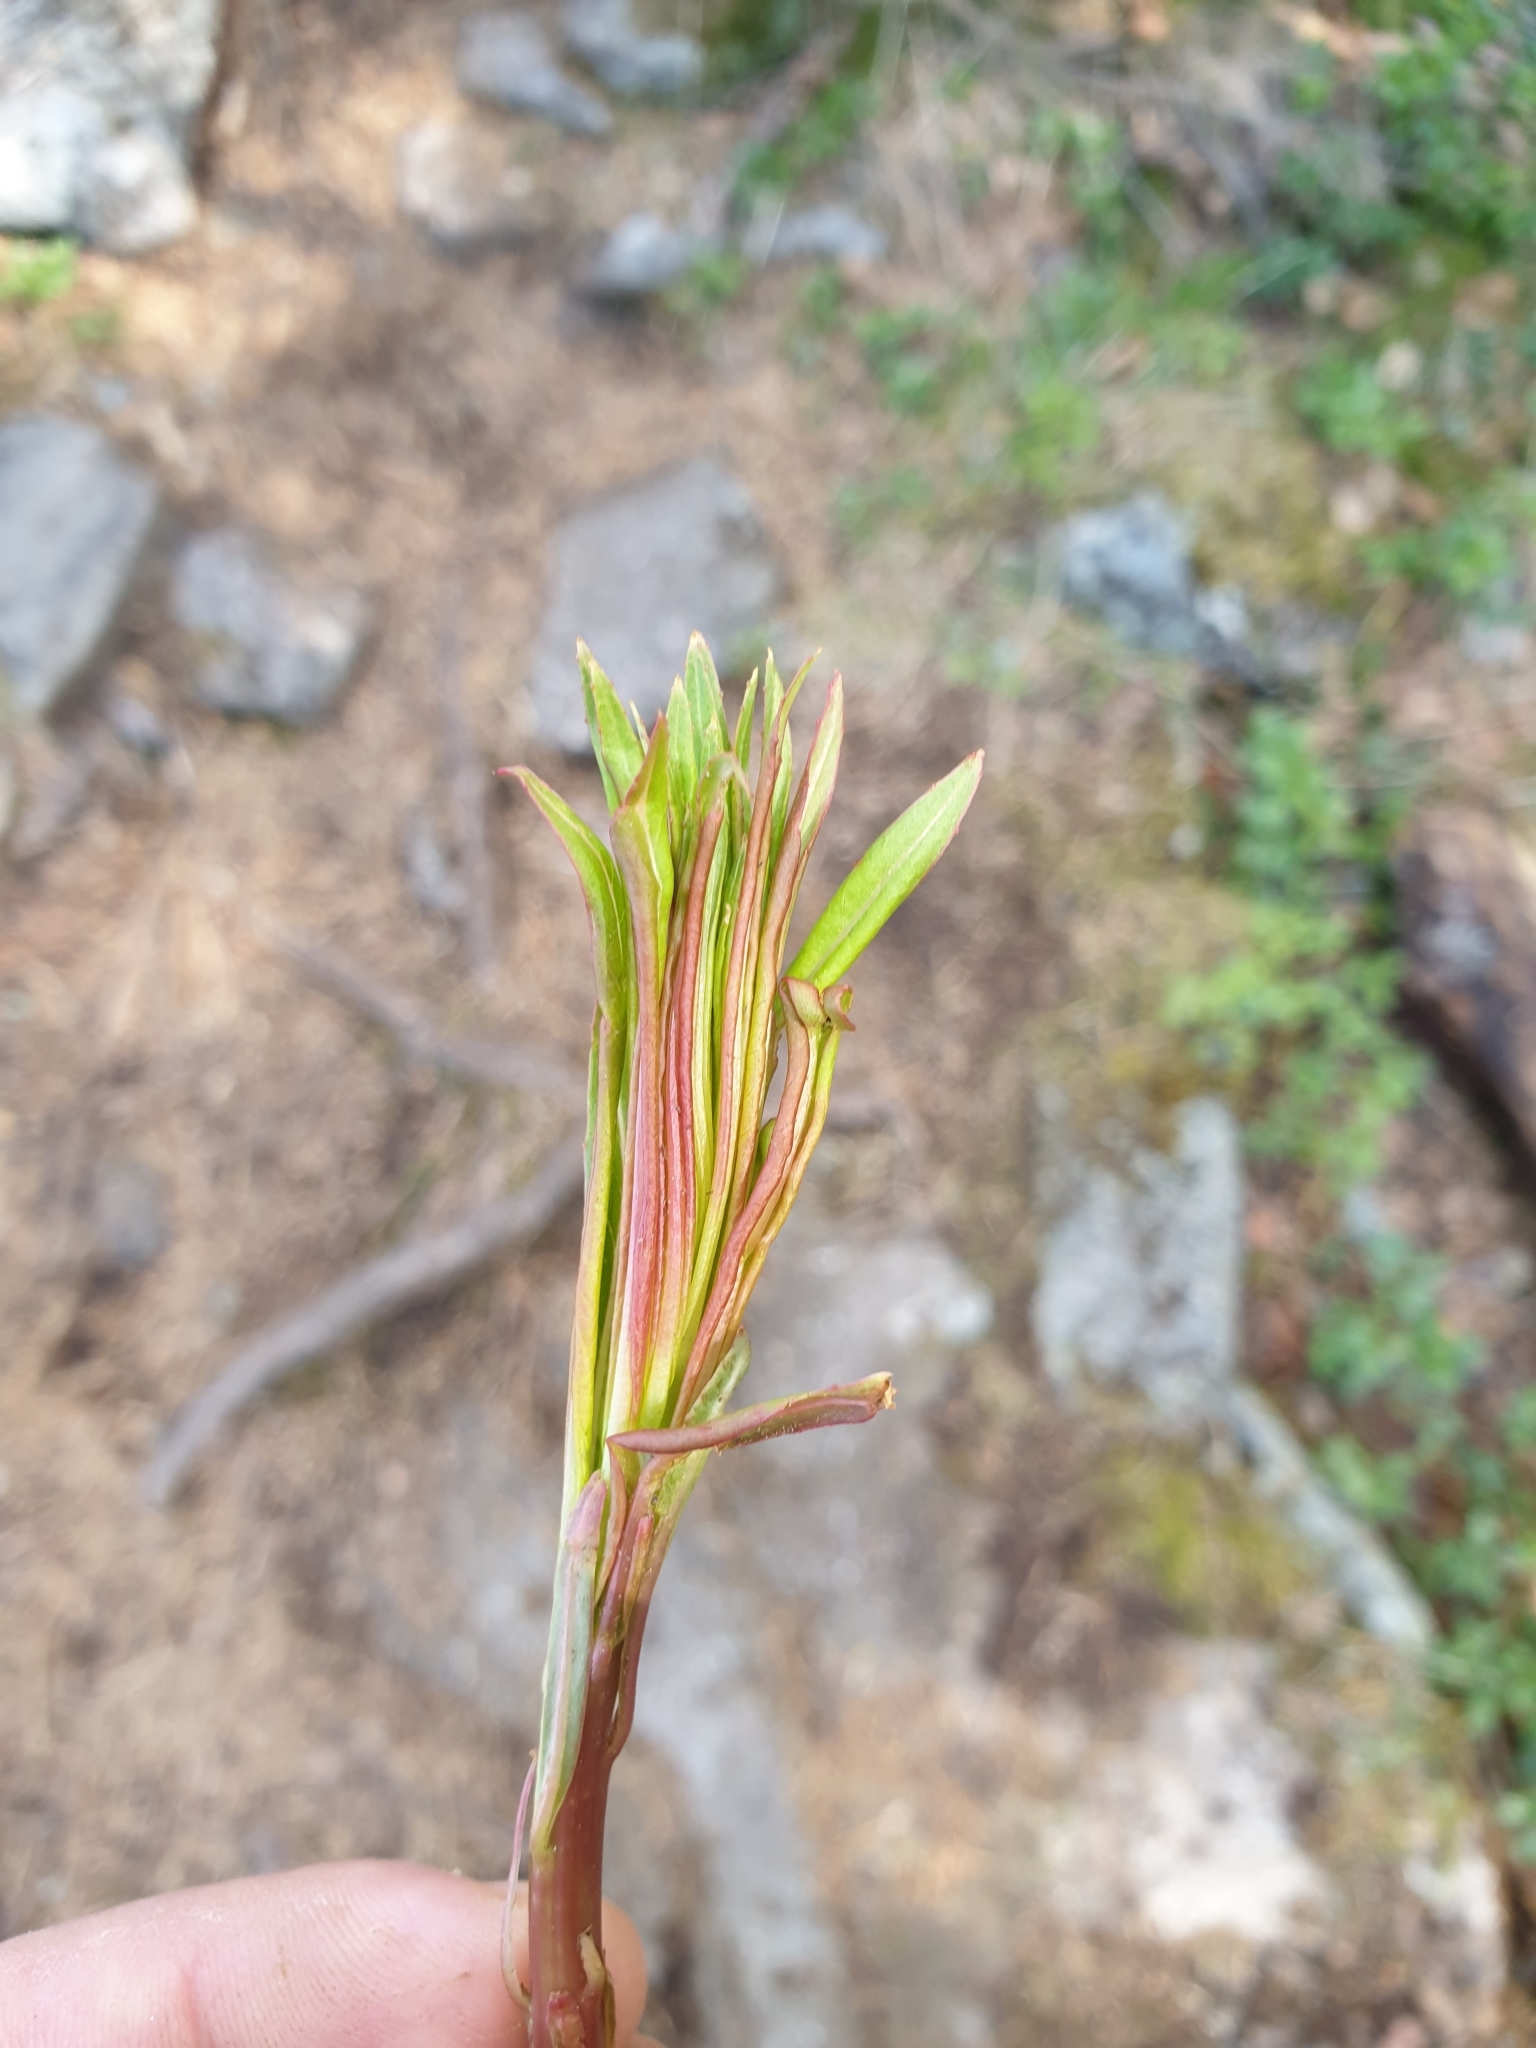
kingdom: Plantae
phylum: Tracheophyta
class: Magnoliopsida
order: Myrtales
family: Onagraceae
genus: Chamaenerion
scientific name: Chamaenerion angustifolium
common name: Fireweed
